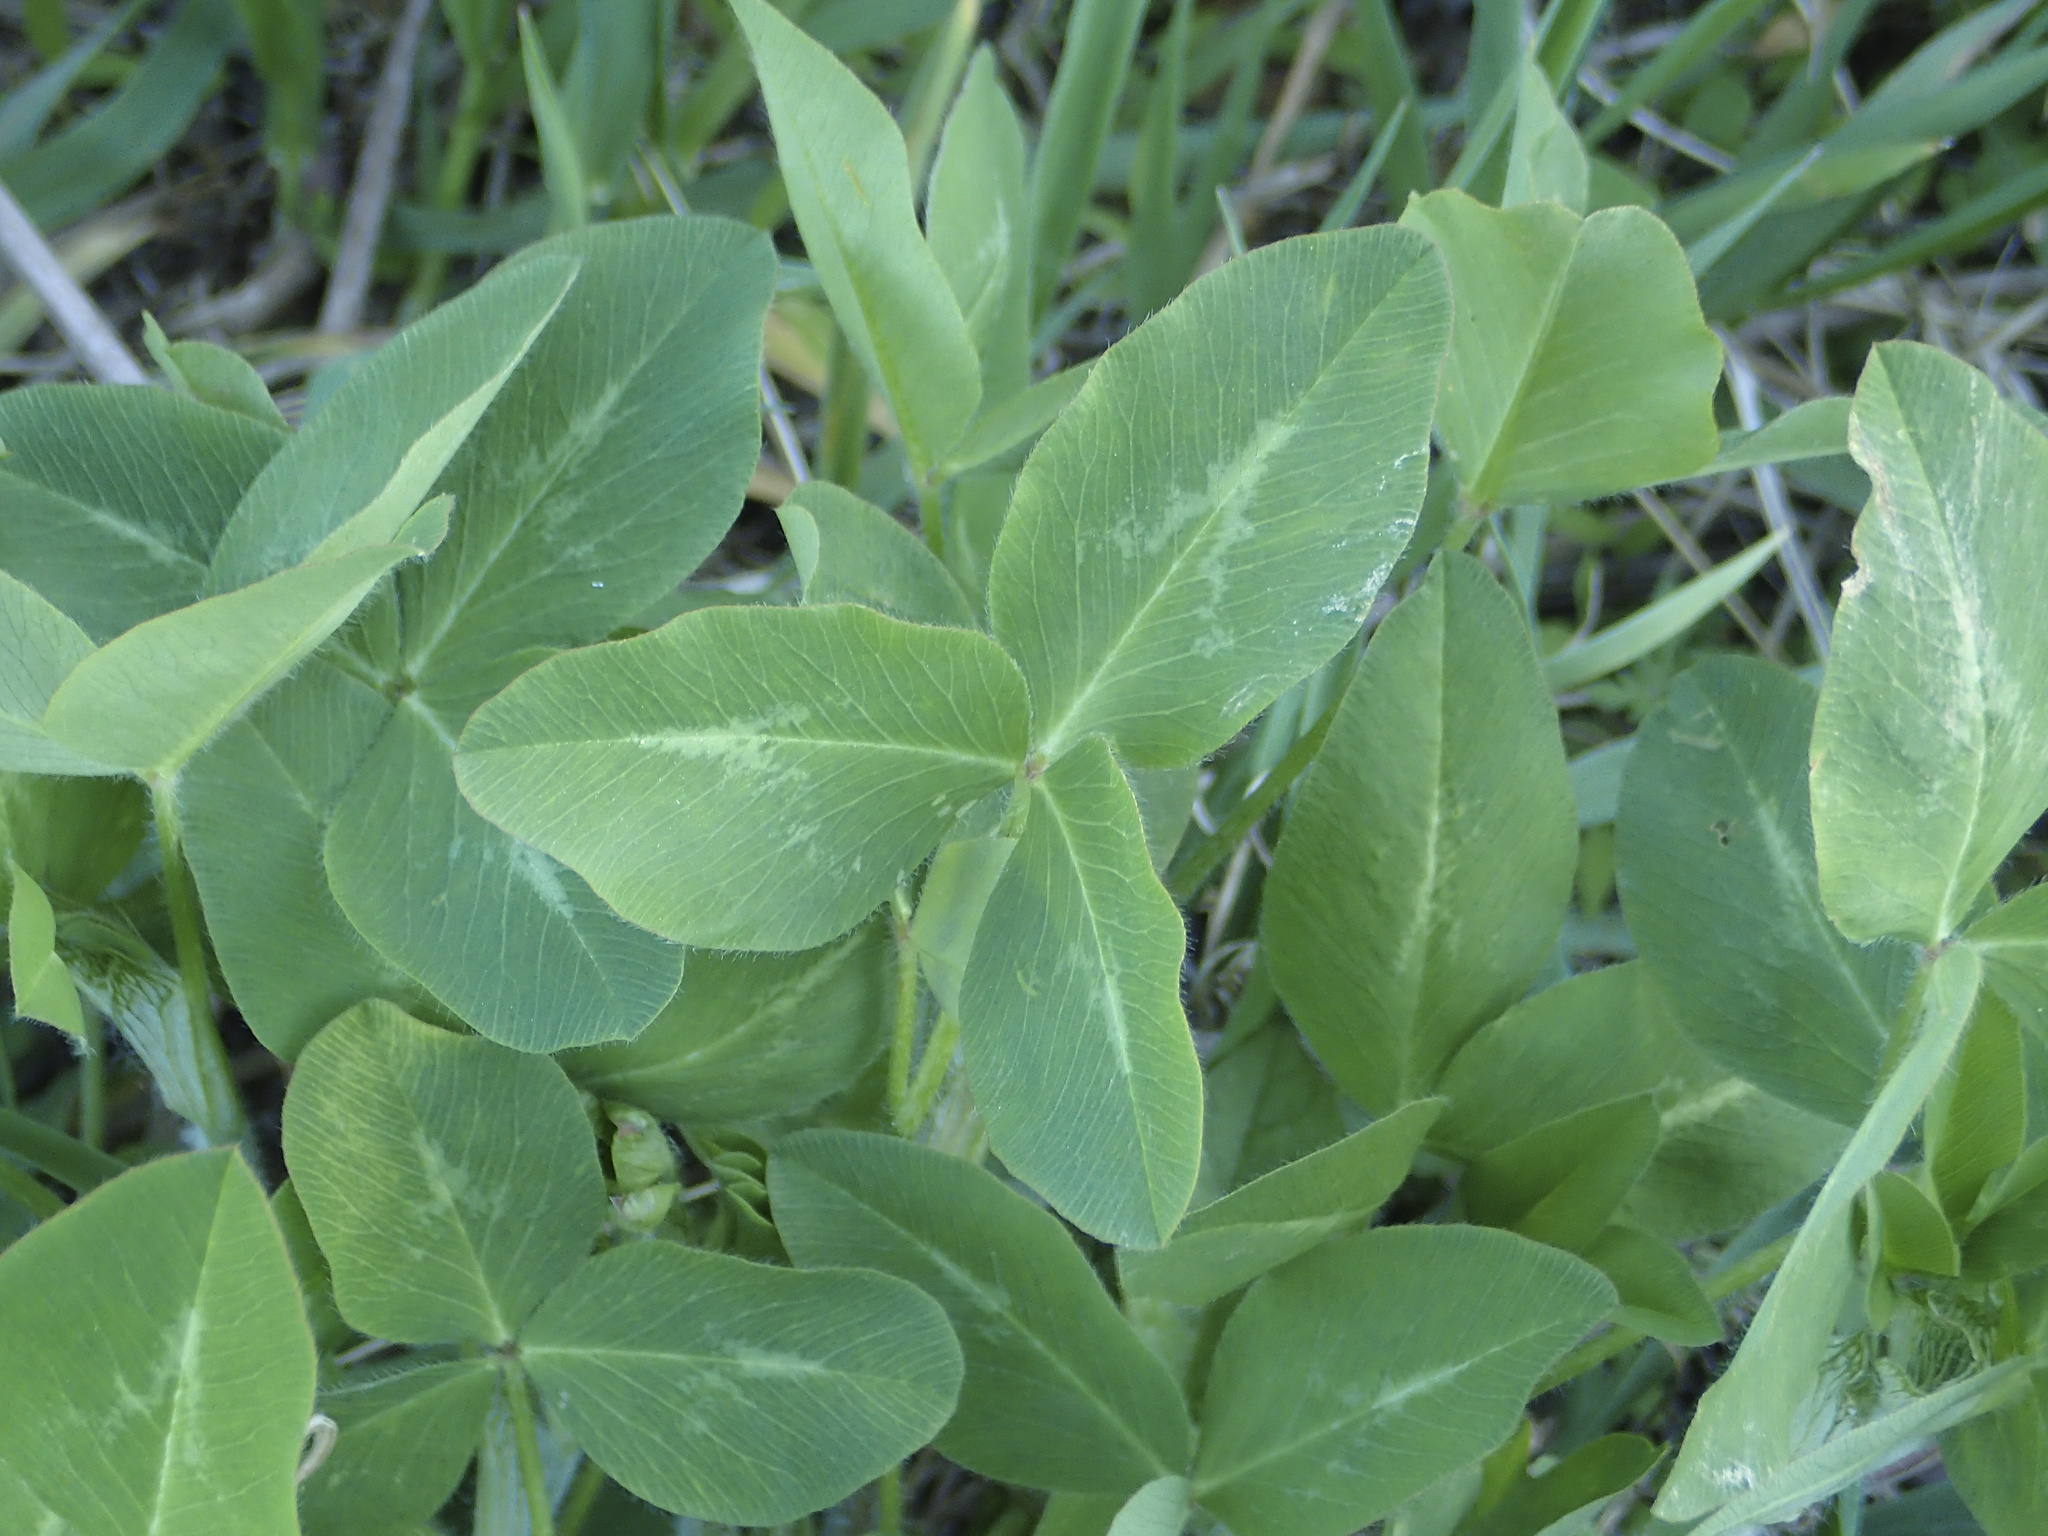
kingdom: Plantae
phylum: Tracheophyta
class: Magnoliopsida
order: Fabales
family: Fabaceae
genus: Trifolium
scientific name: Trifolium pratense
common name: Red clover
